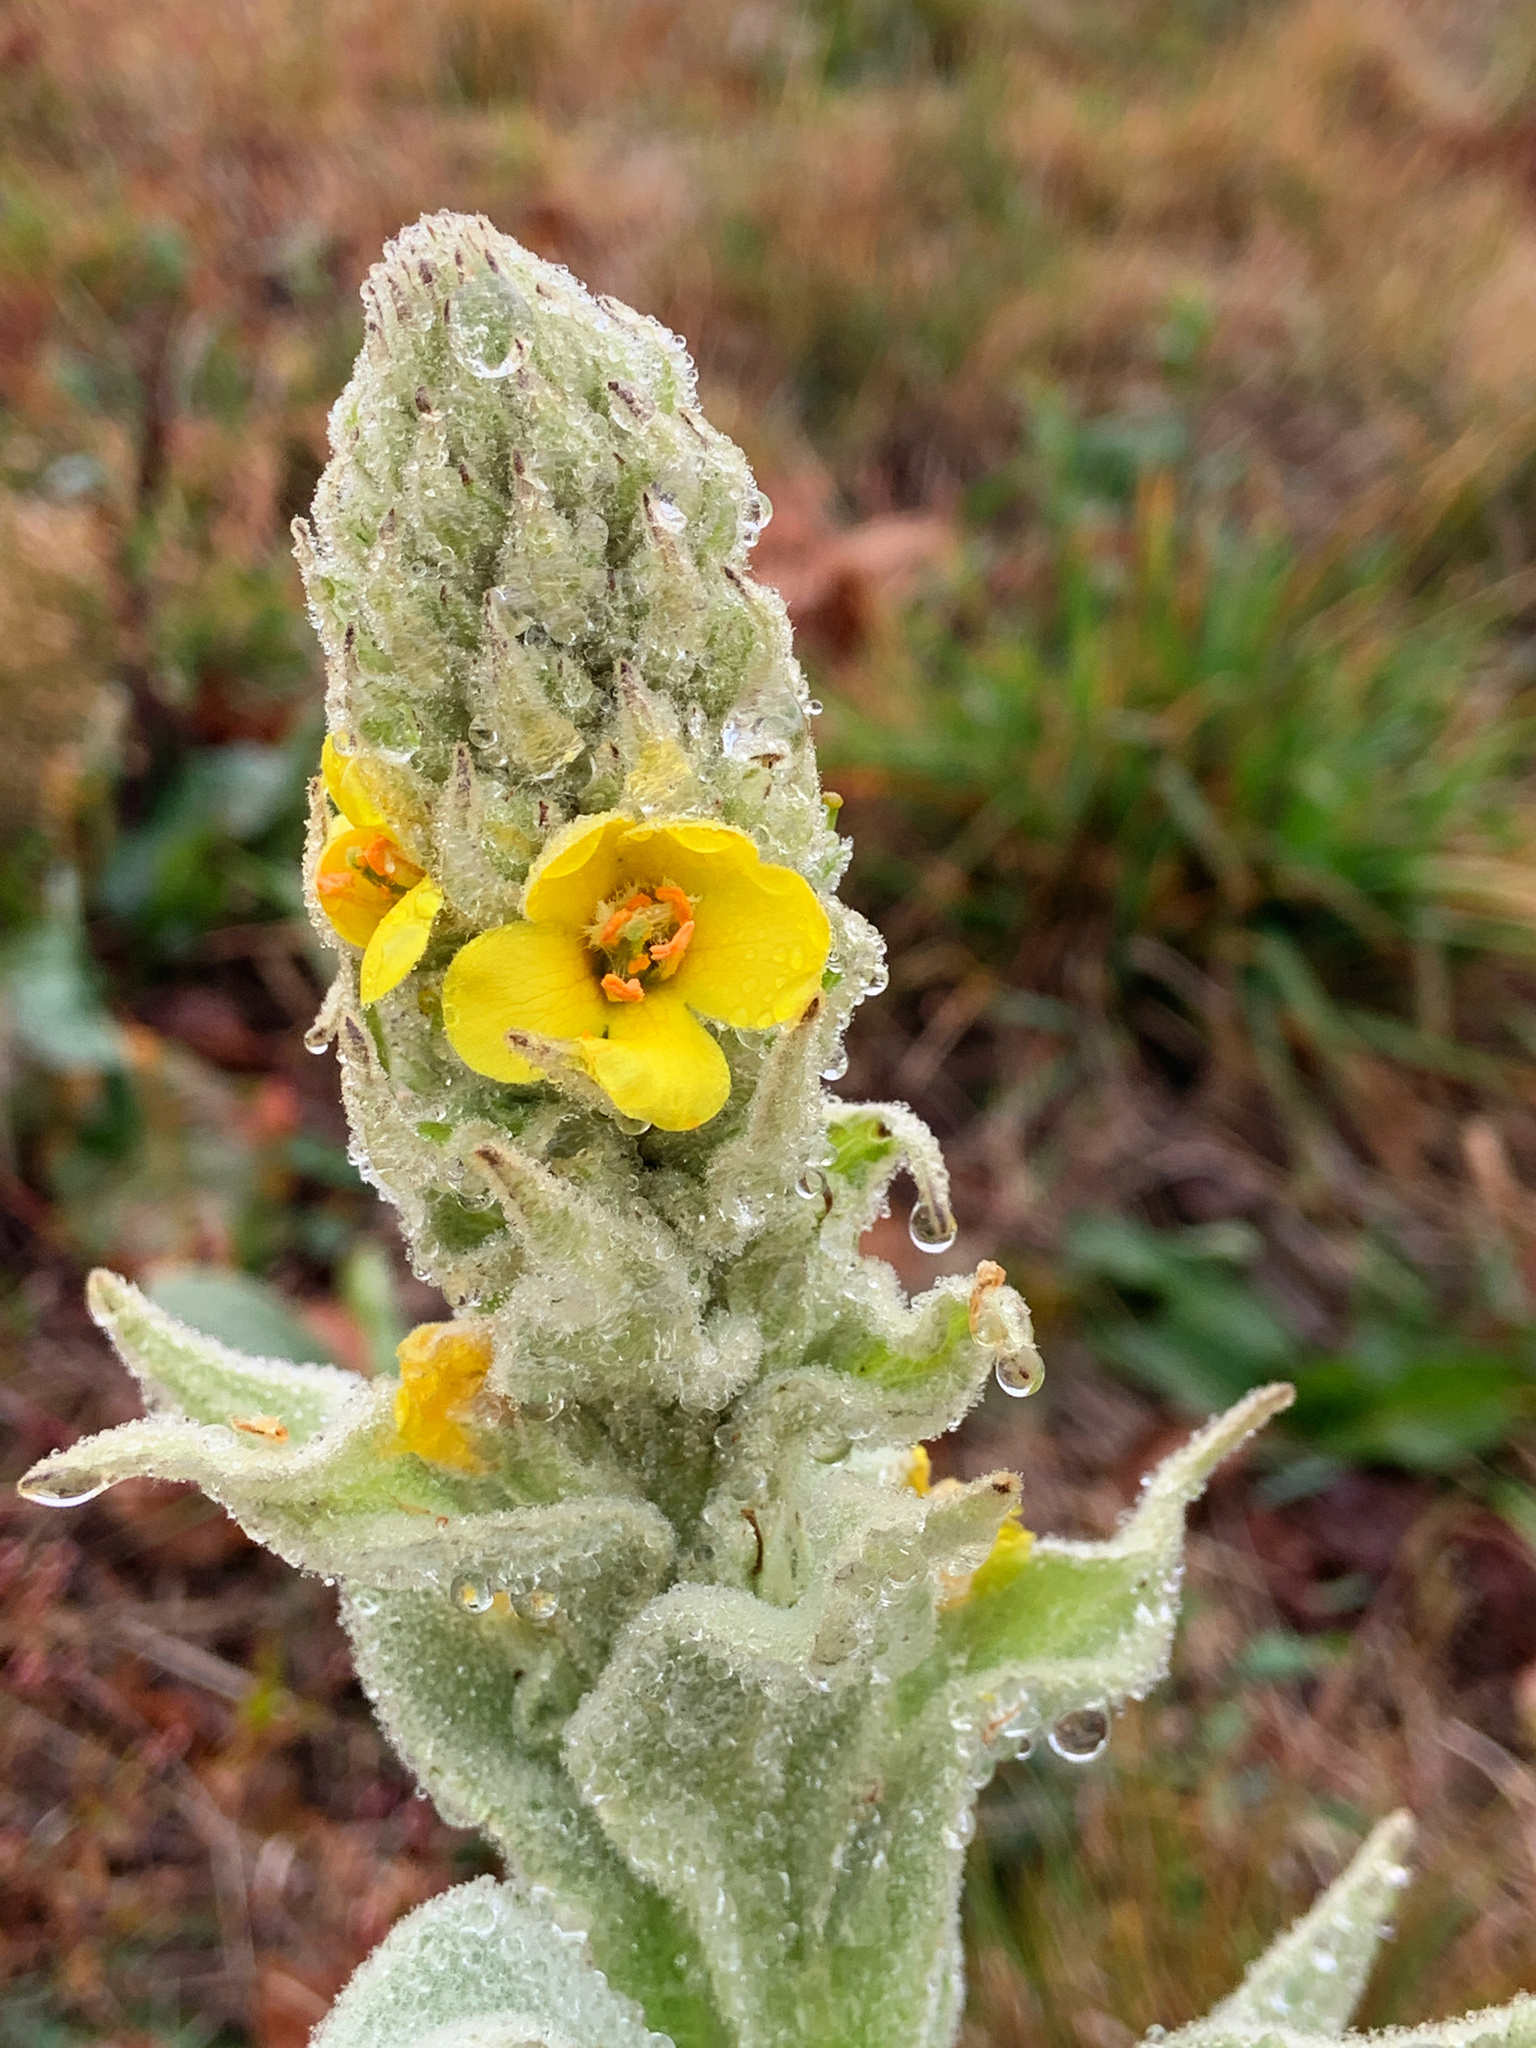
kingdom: Plantae
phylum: Tracheophyta
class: Magnoliopsida
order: Lamiales
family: Scrophulariaceae
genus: Verbascum
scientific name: Verbascum thapsus
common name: Common mullein
